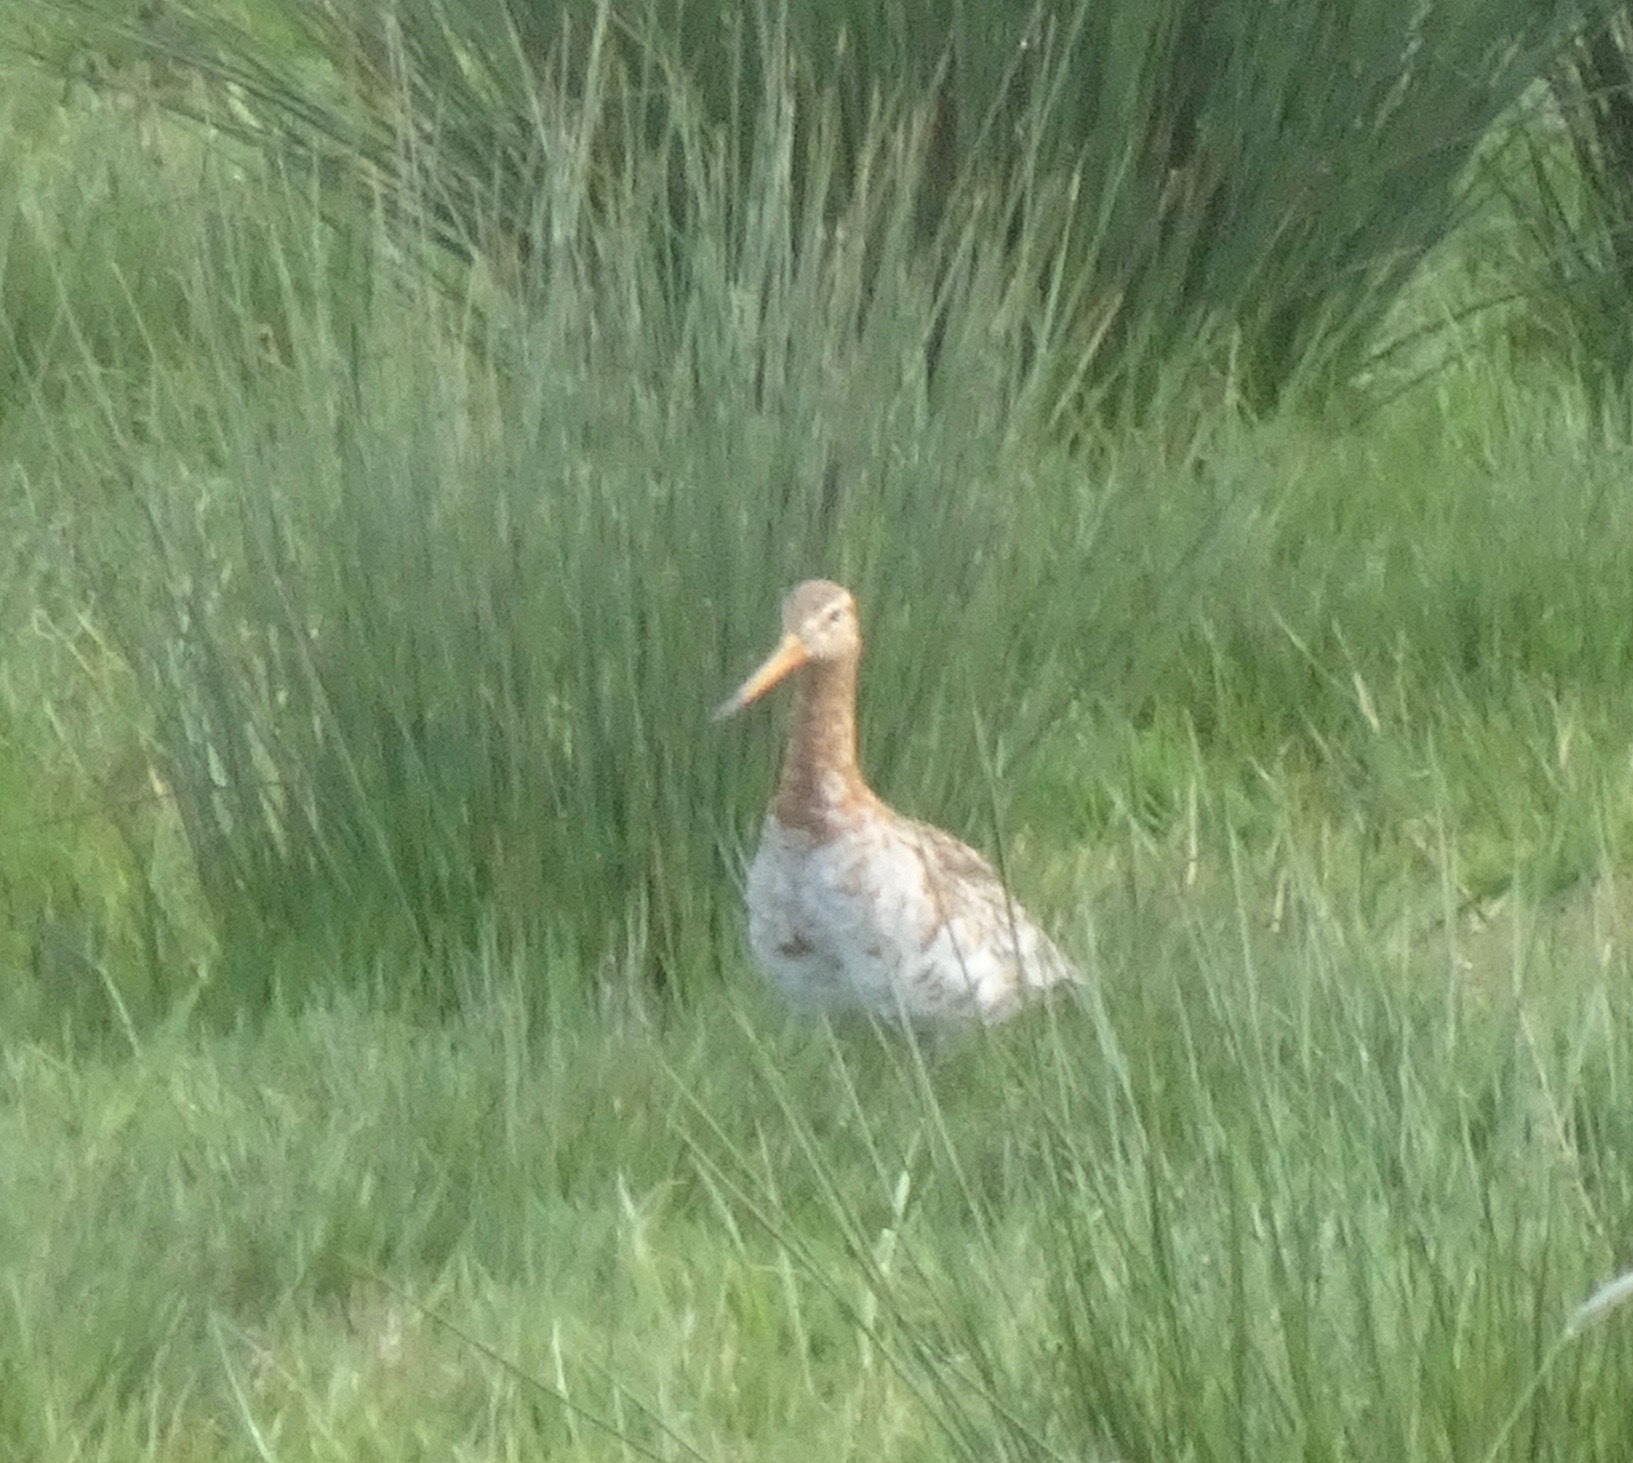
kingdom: Animalia
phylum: Chordata
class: Aves
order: Charadriiformes
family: Scolopacidae
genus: Limosa
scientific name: Limosa limosa
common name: Black-tailed godwit
